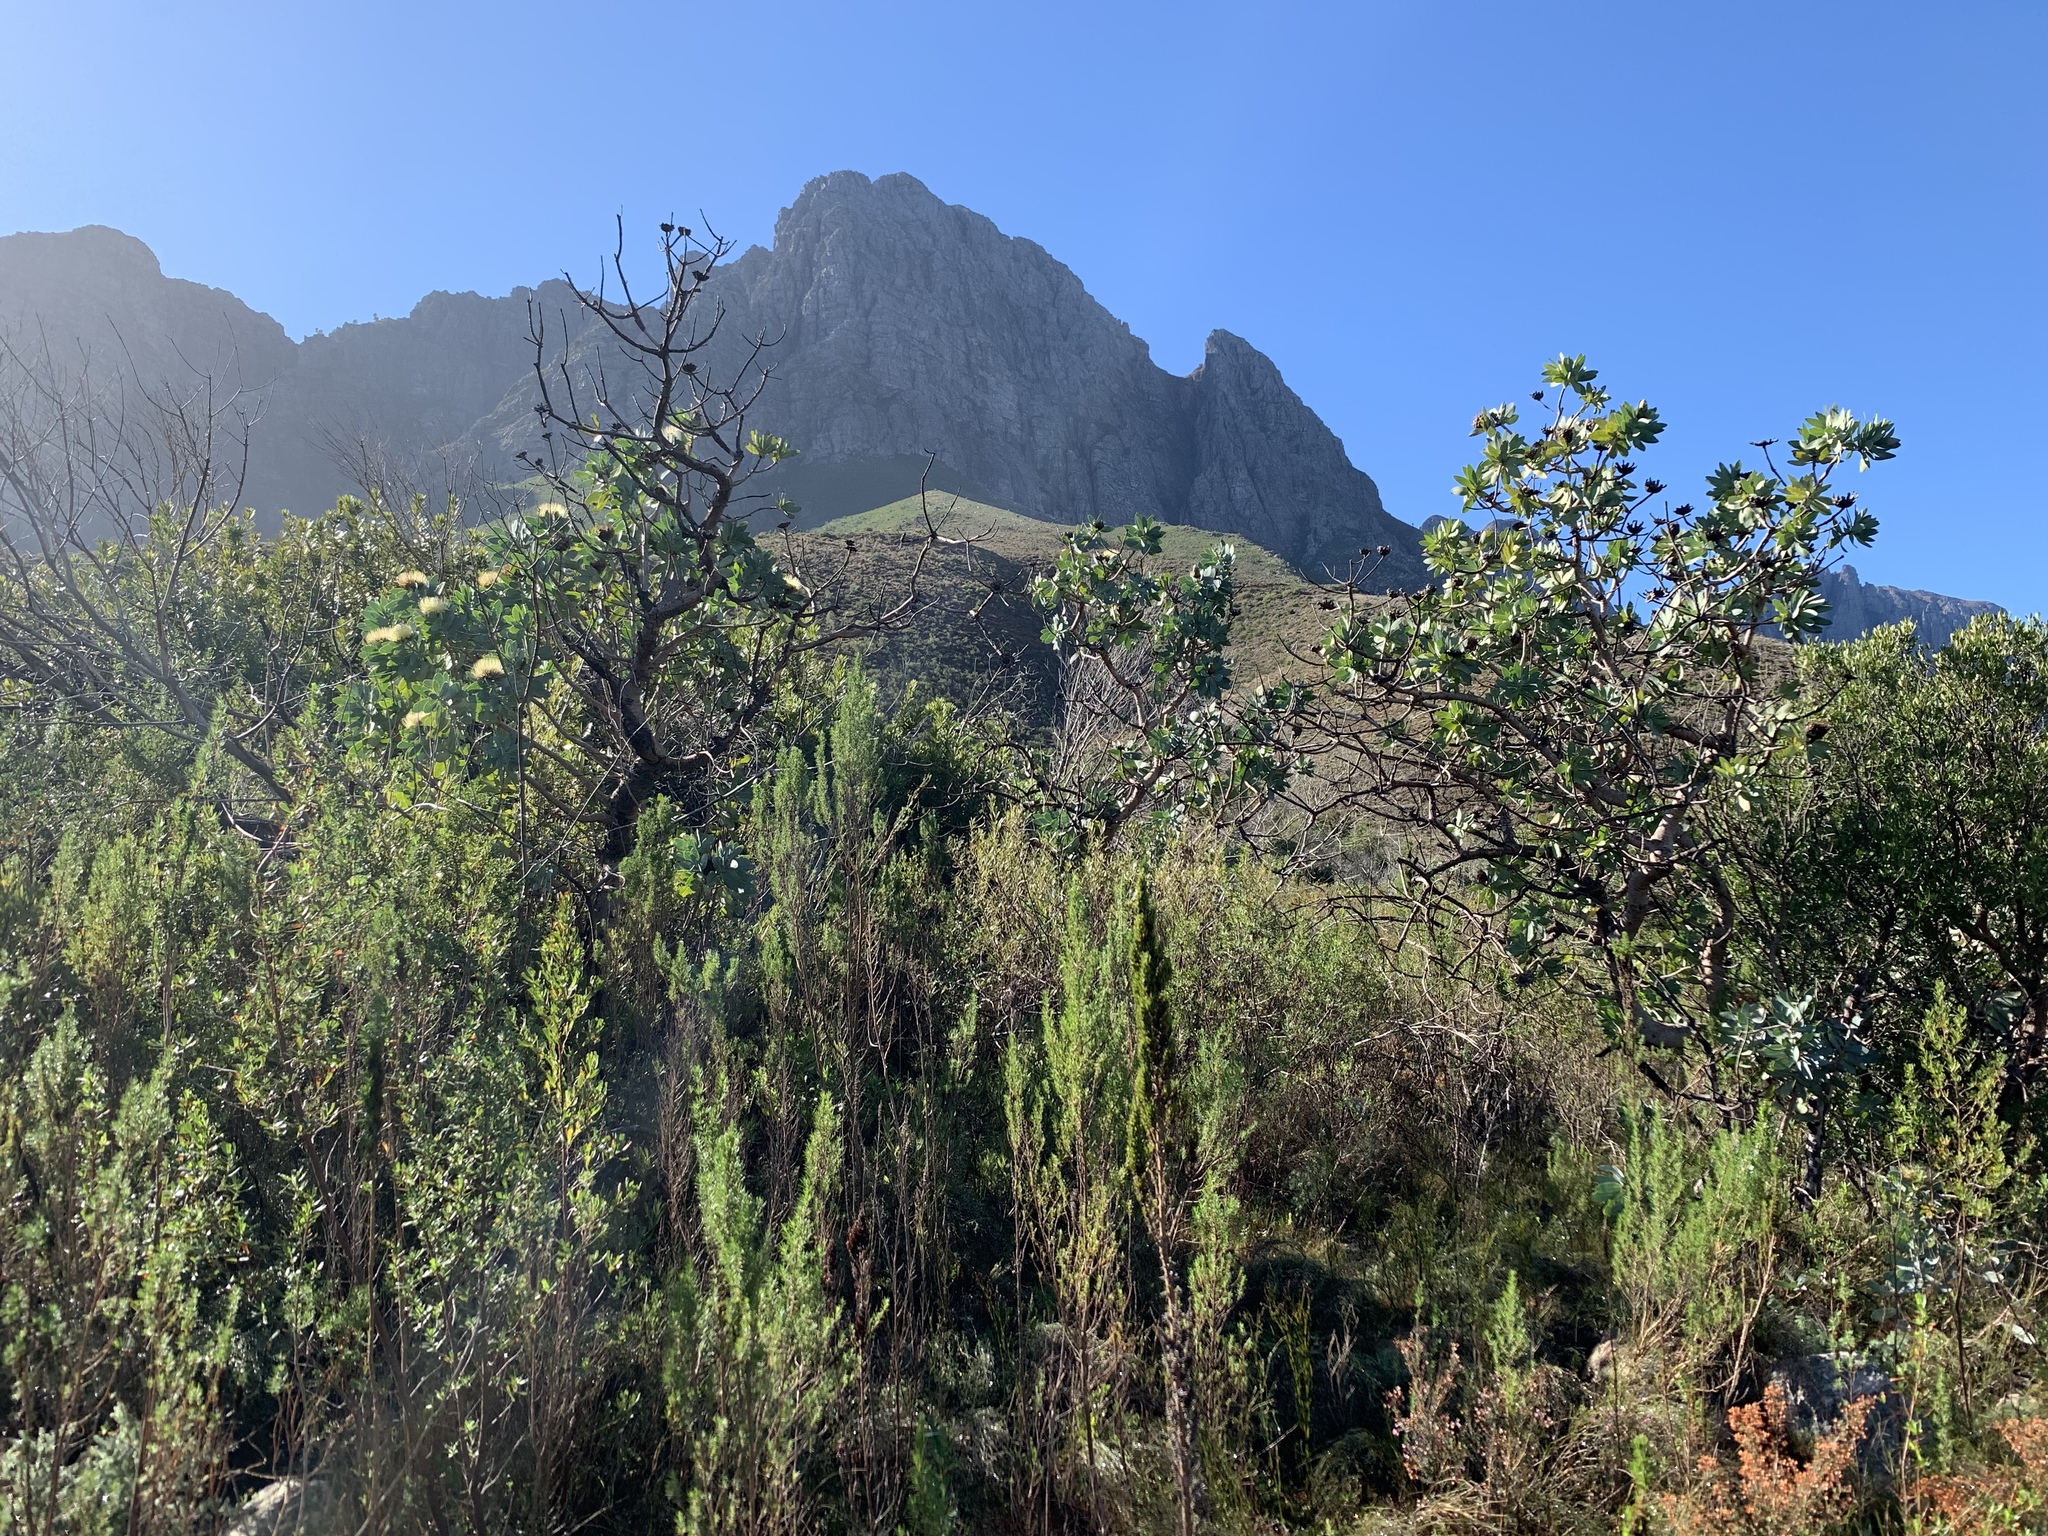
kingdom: Plantae
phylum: Tracheophyta
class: Magnoliopsida
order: Proteales
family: Proteaceae
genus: Protea
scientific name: Protea nitida
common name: Tree protea
